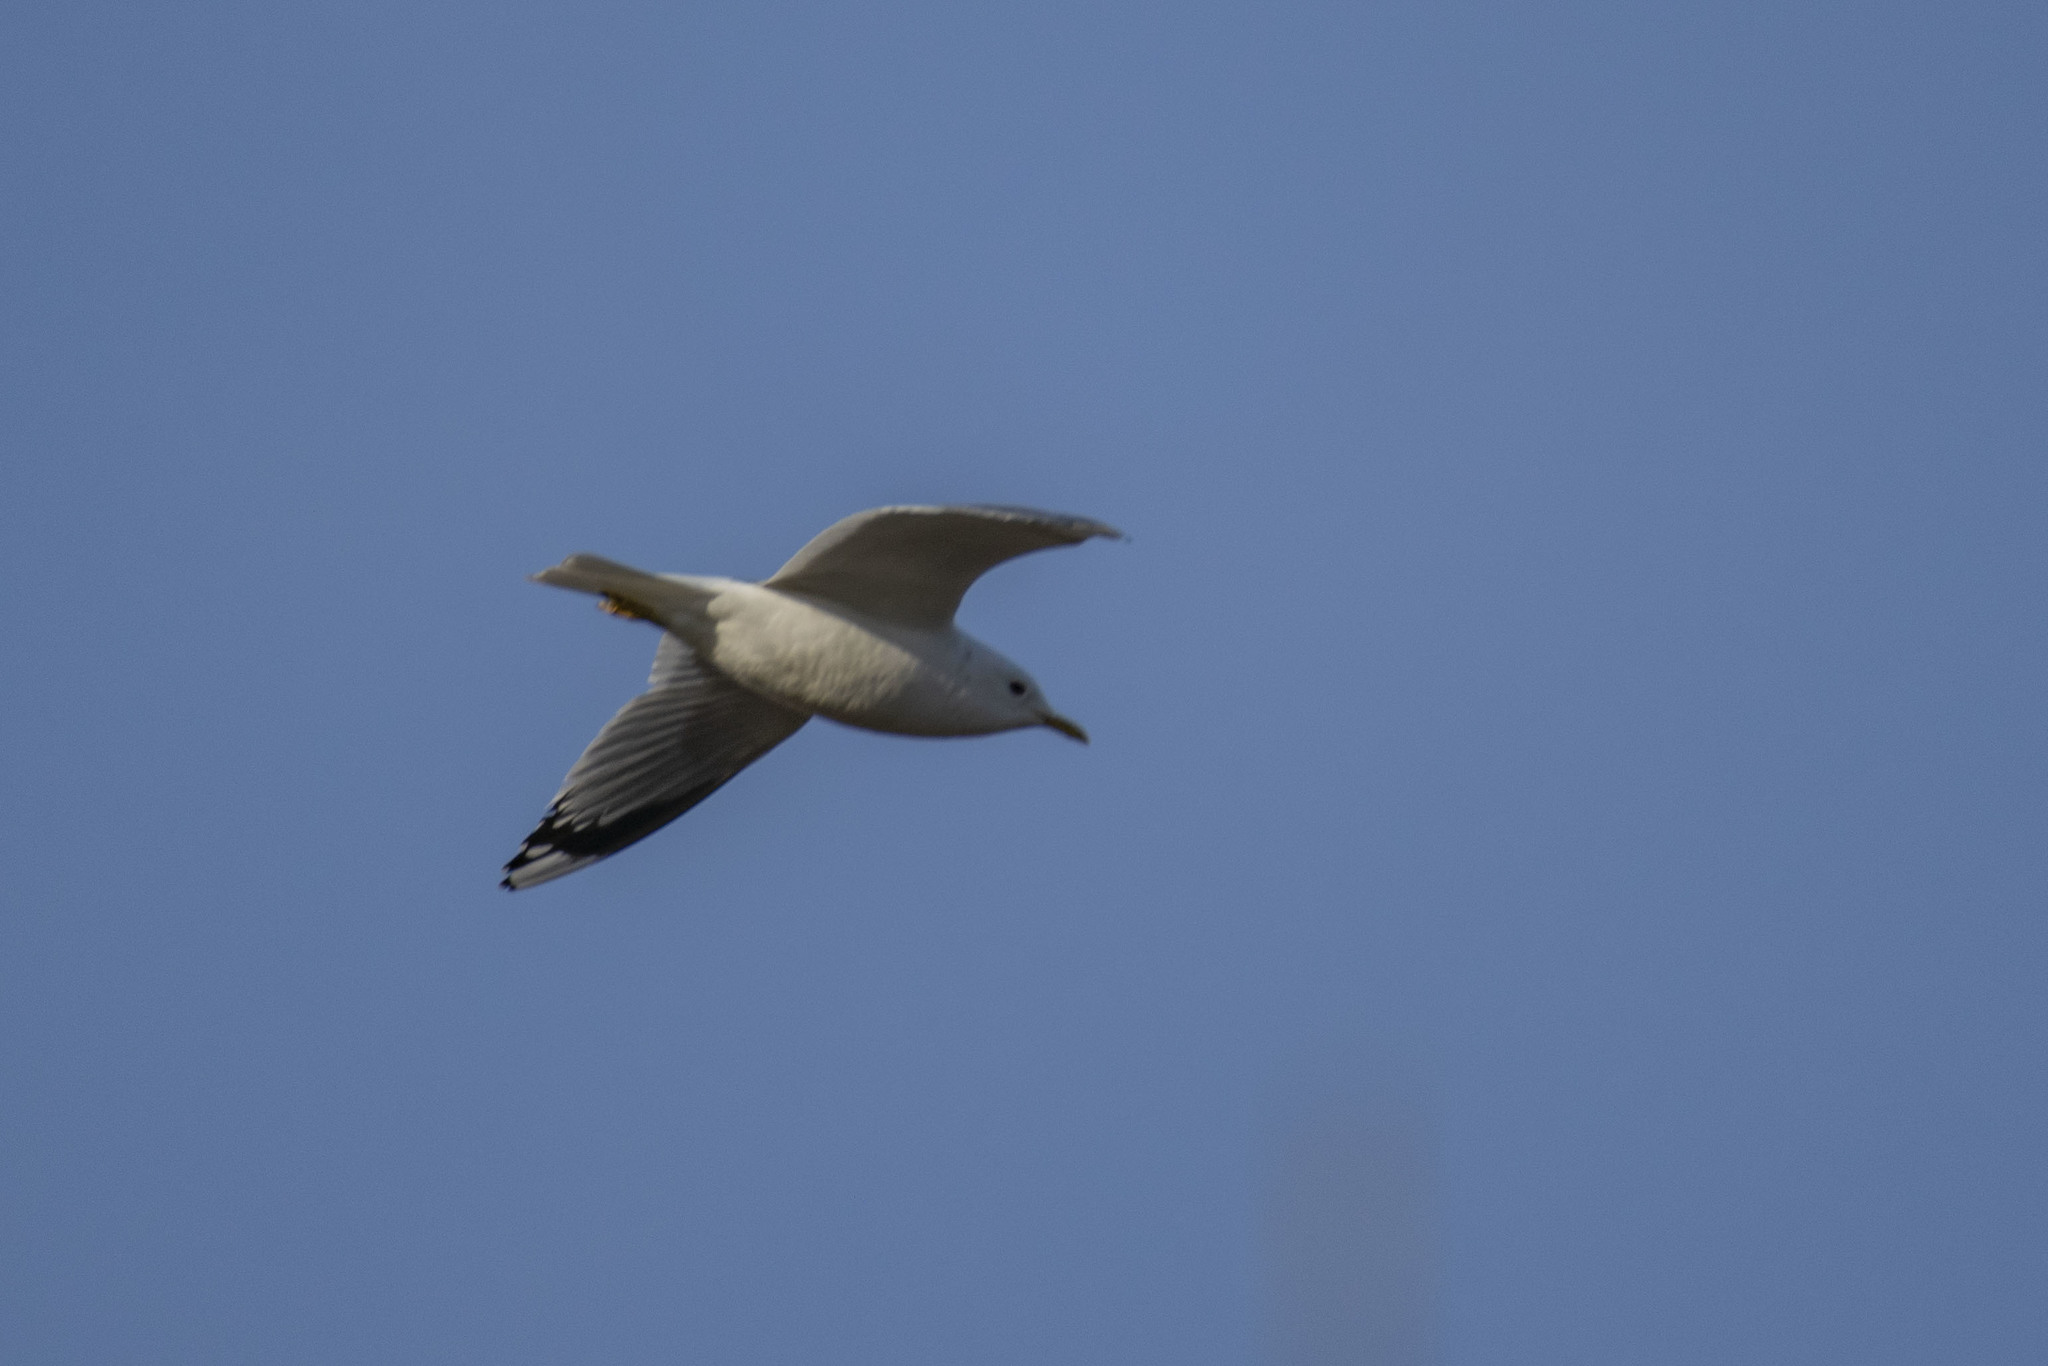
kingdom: Animalia
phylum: Chordata
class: Aves
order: Charadriiformes
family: Laridae
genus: Larus
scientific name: Larus canus
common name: Mew gull
